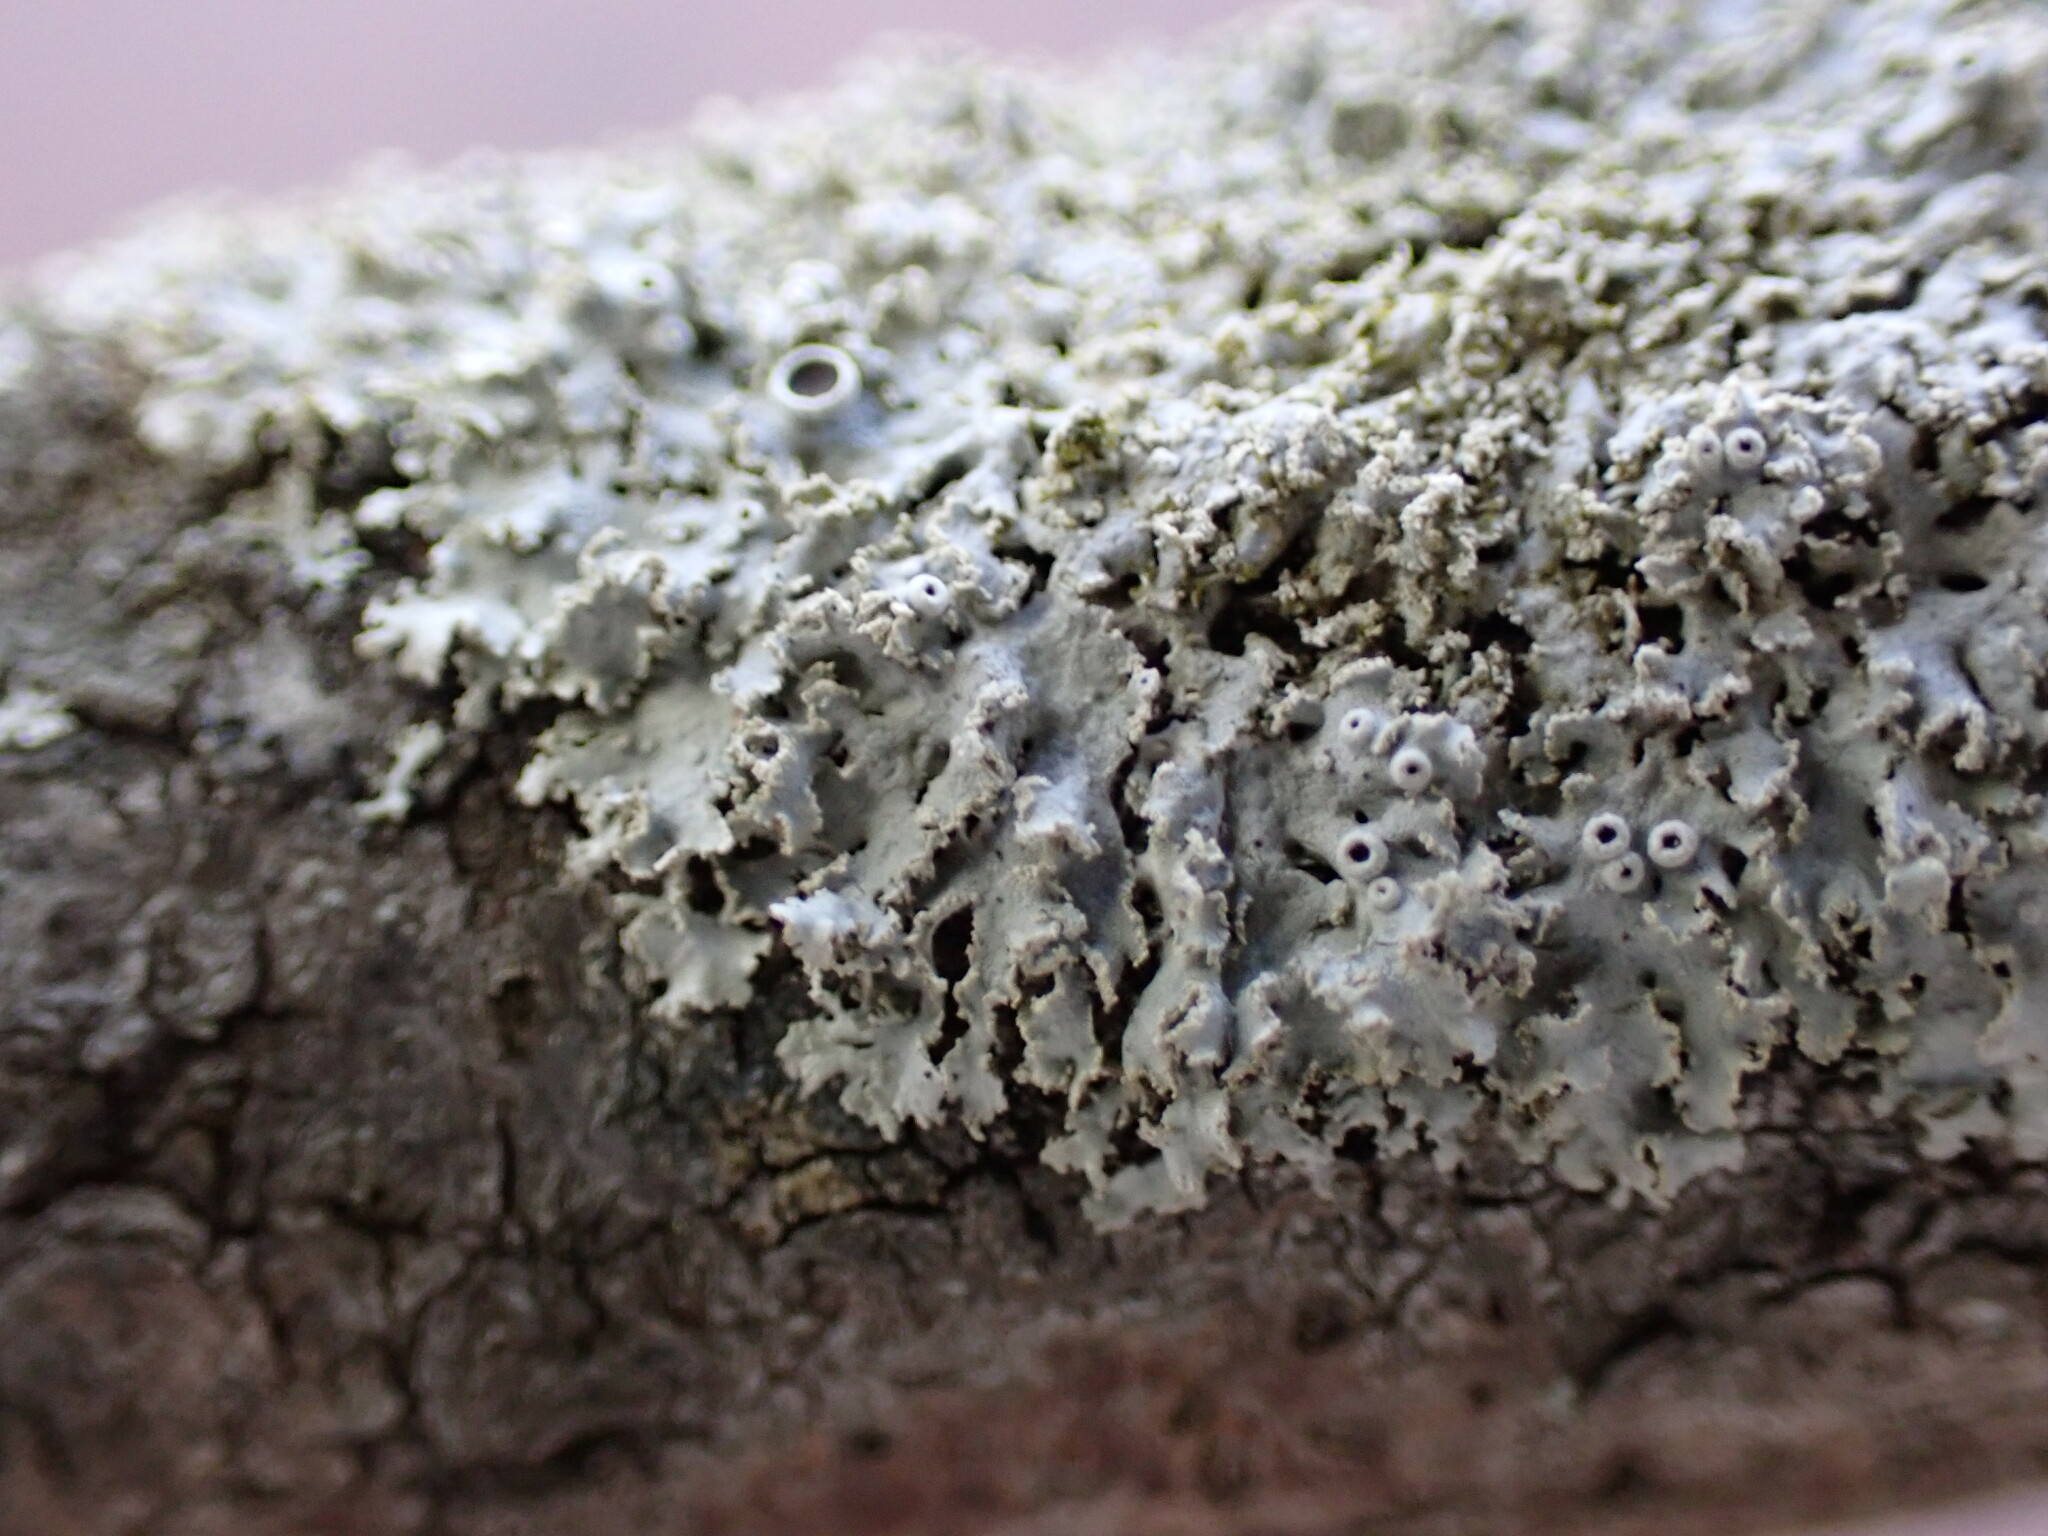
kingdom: Fungi
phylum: Ascomycota
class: Lecanoromycetes
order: Caliciales
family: Physciaceae
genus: Physcia
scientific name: Physcia millegrana
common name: Rosette lichen
